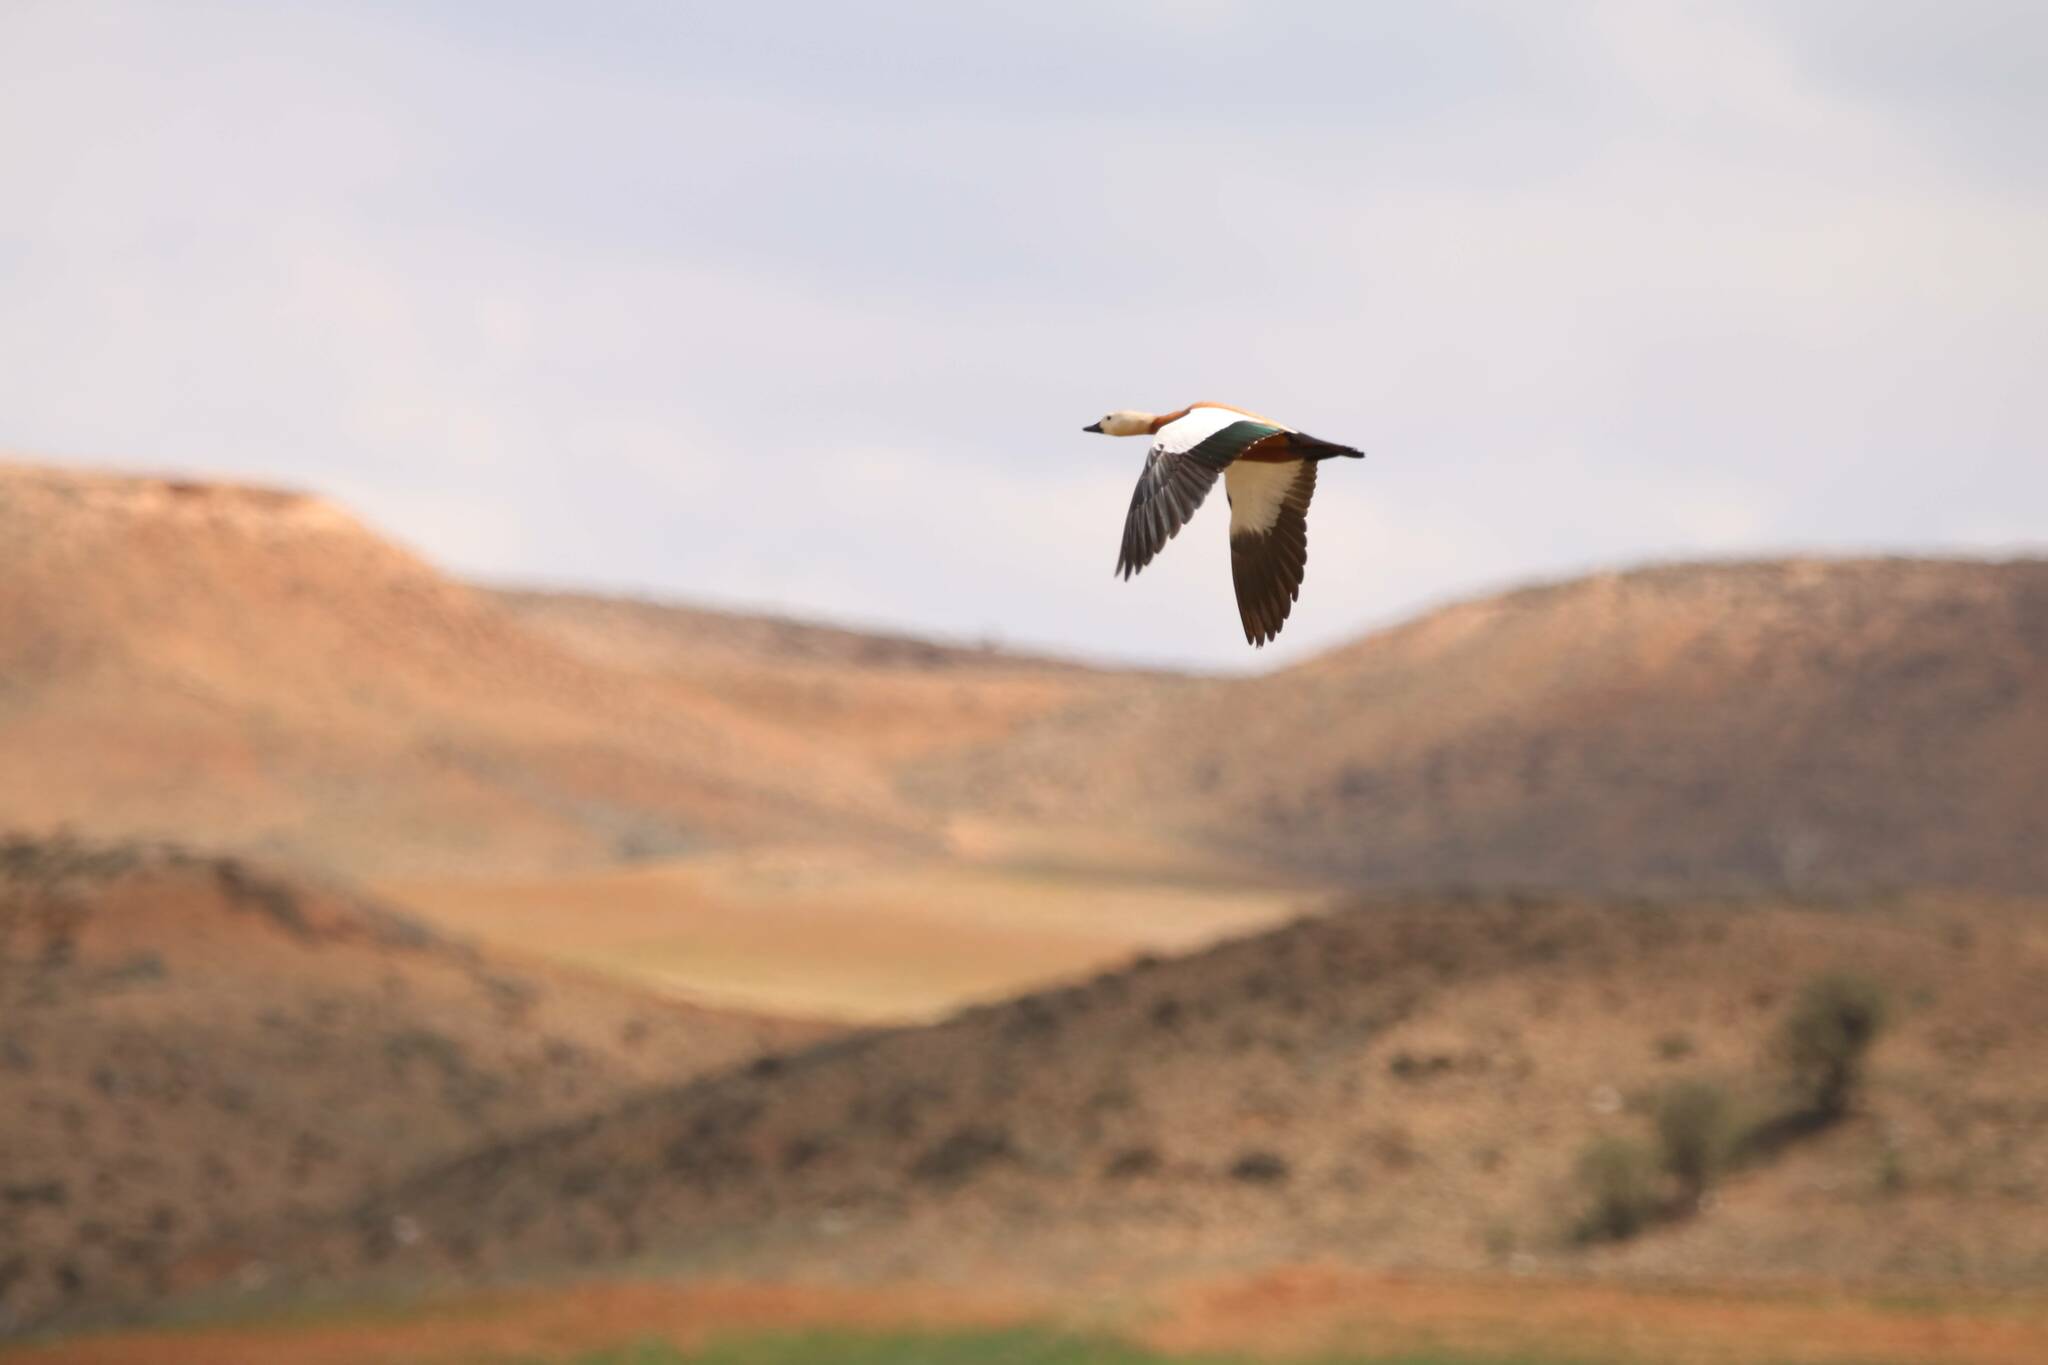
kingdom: Animalia
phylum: Chordata
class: Aves
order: Anseriformes
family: Anatidae
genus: Tadorna
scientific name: Tadorna ferruginea
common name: Ruddy shelduck
